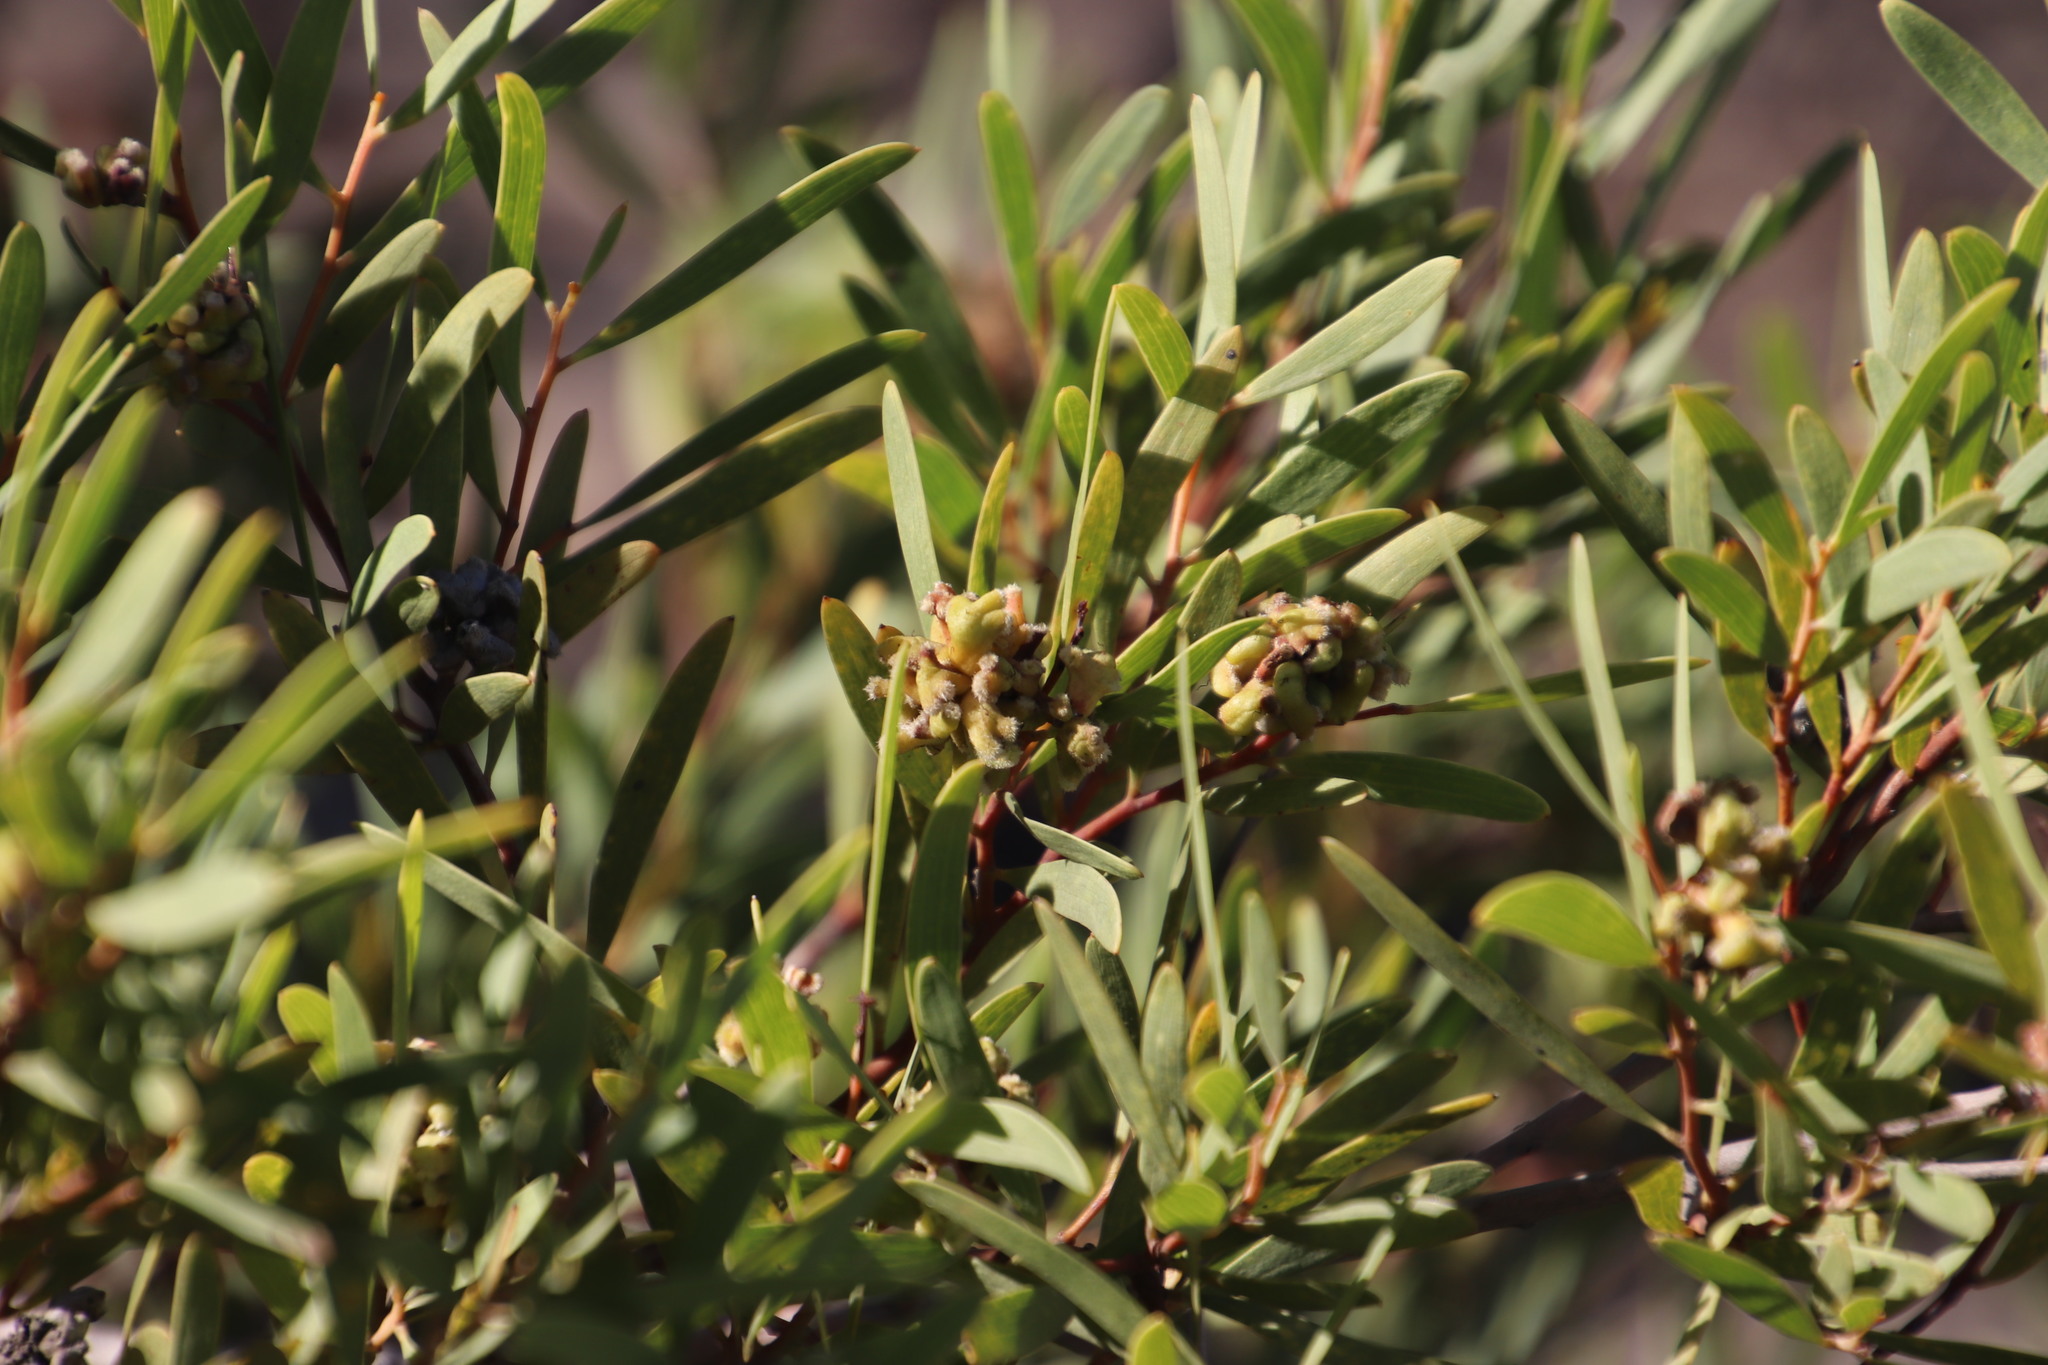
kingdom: Animalia
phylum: Arthropoda
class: Insecta
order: Diptera
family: Cecidomyiidae
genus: Dasineura
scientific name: Dasineura dielsi
